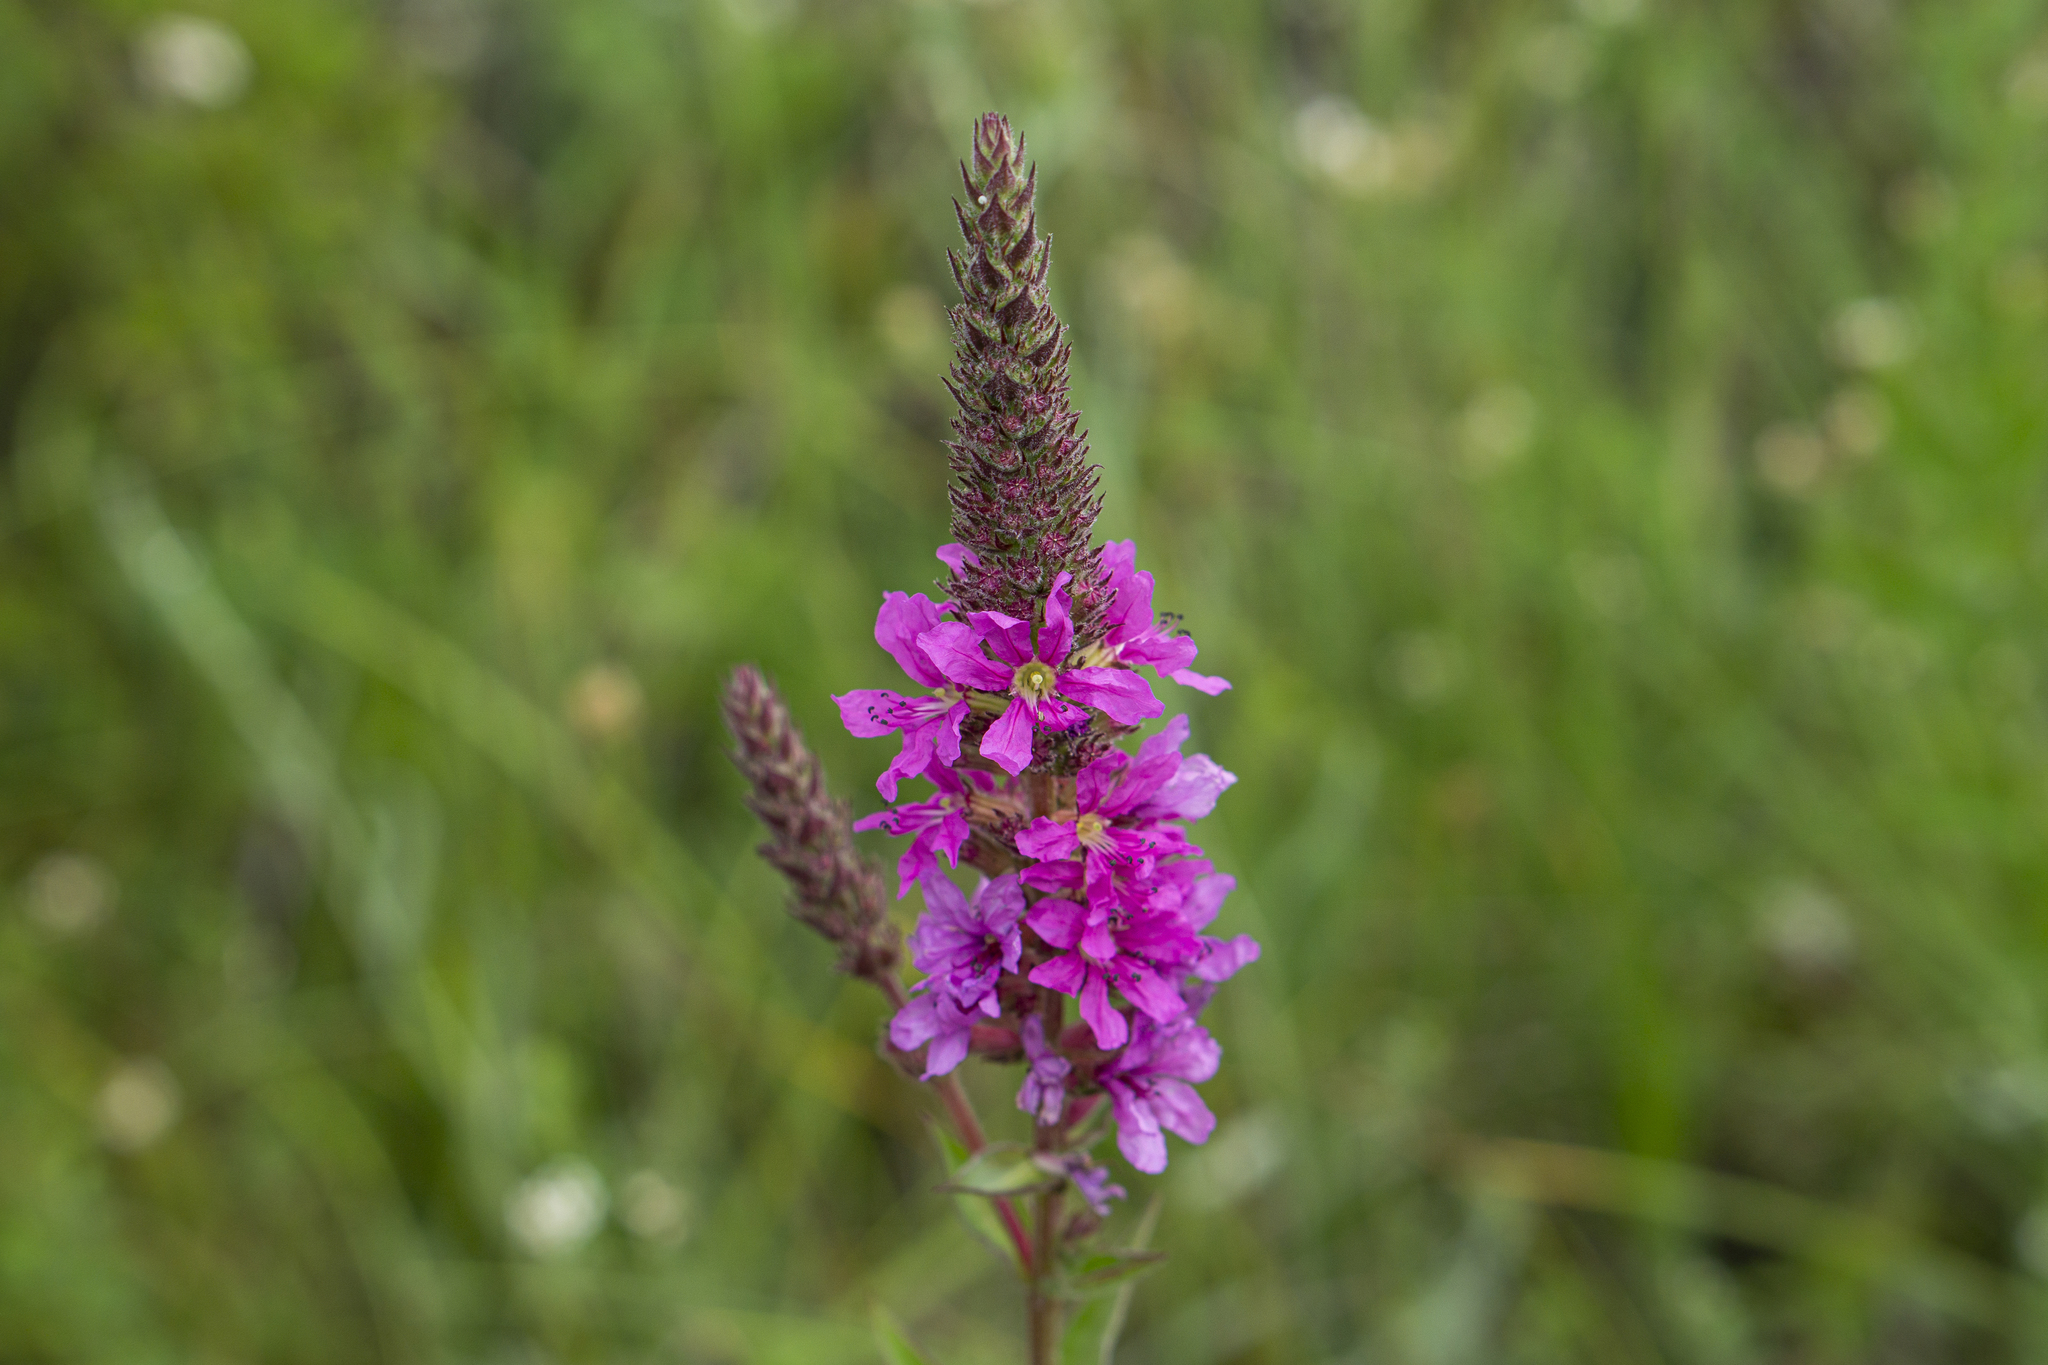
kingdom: Plantae
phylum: Tracheophyta
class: Magnoliopsida
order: Myrtales
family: Lythraceae
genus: Lythrum
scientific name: Lythrum salicaria
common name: Purple loosestrife
